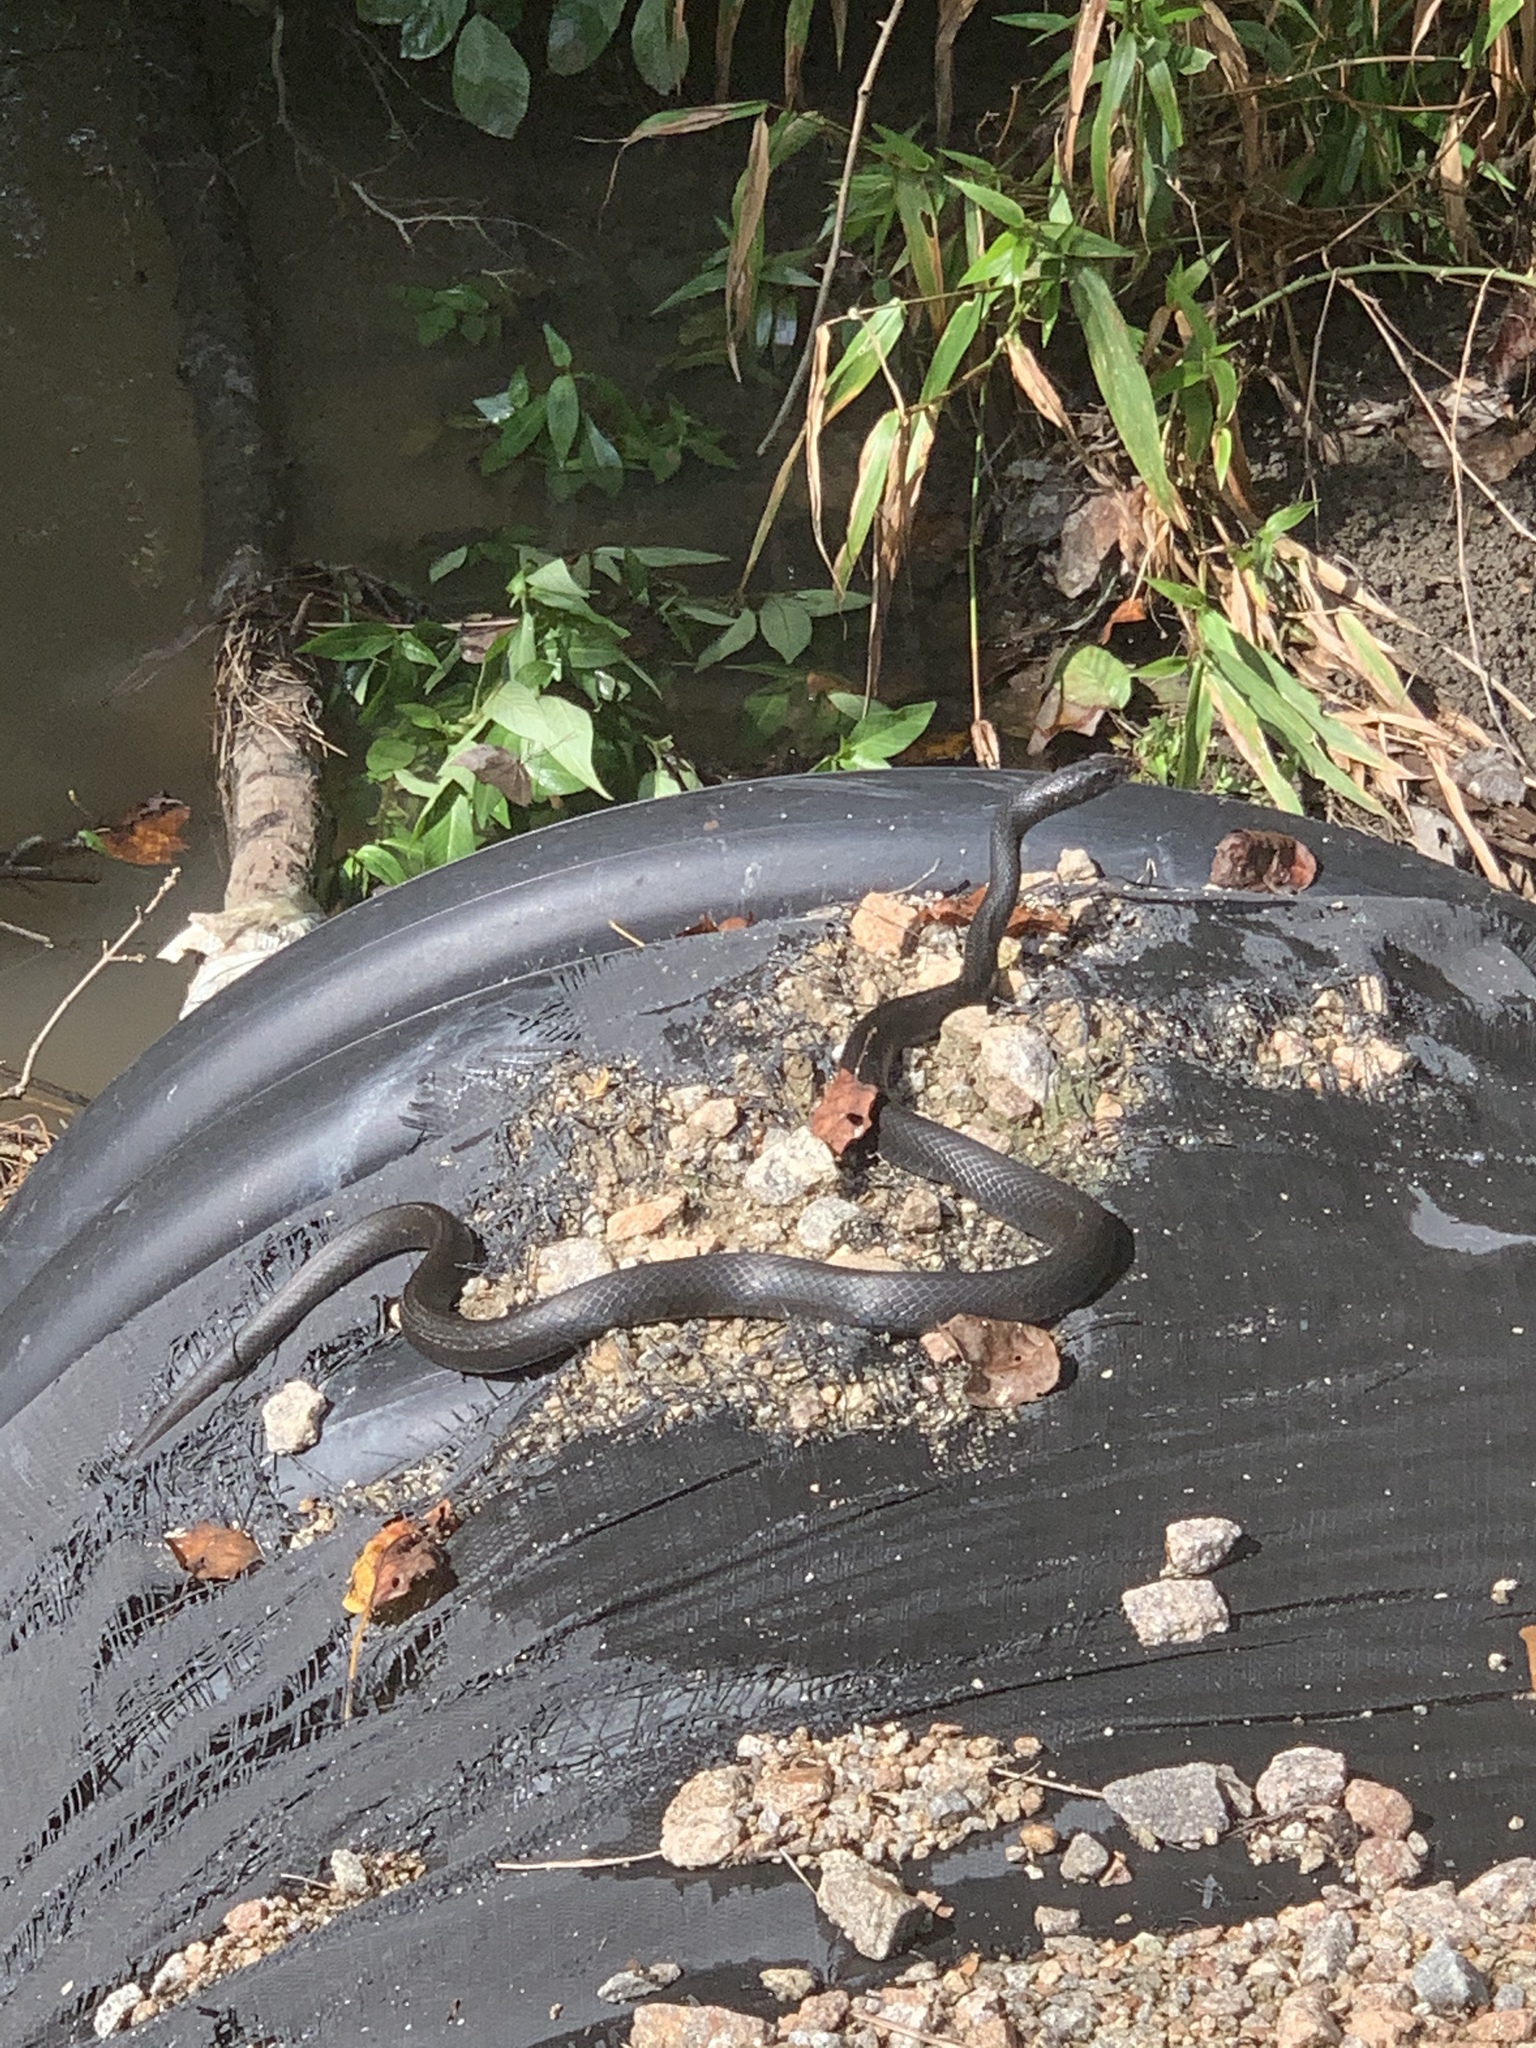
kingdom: Animalia
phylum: Chordata
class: Squamata
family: Colubridae
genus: Coluber
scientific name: Coluber constrictor
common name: Eastern racer
